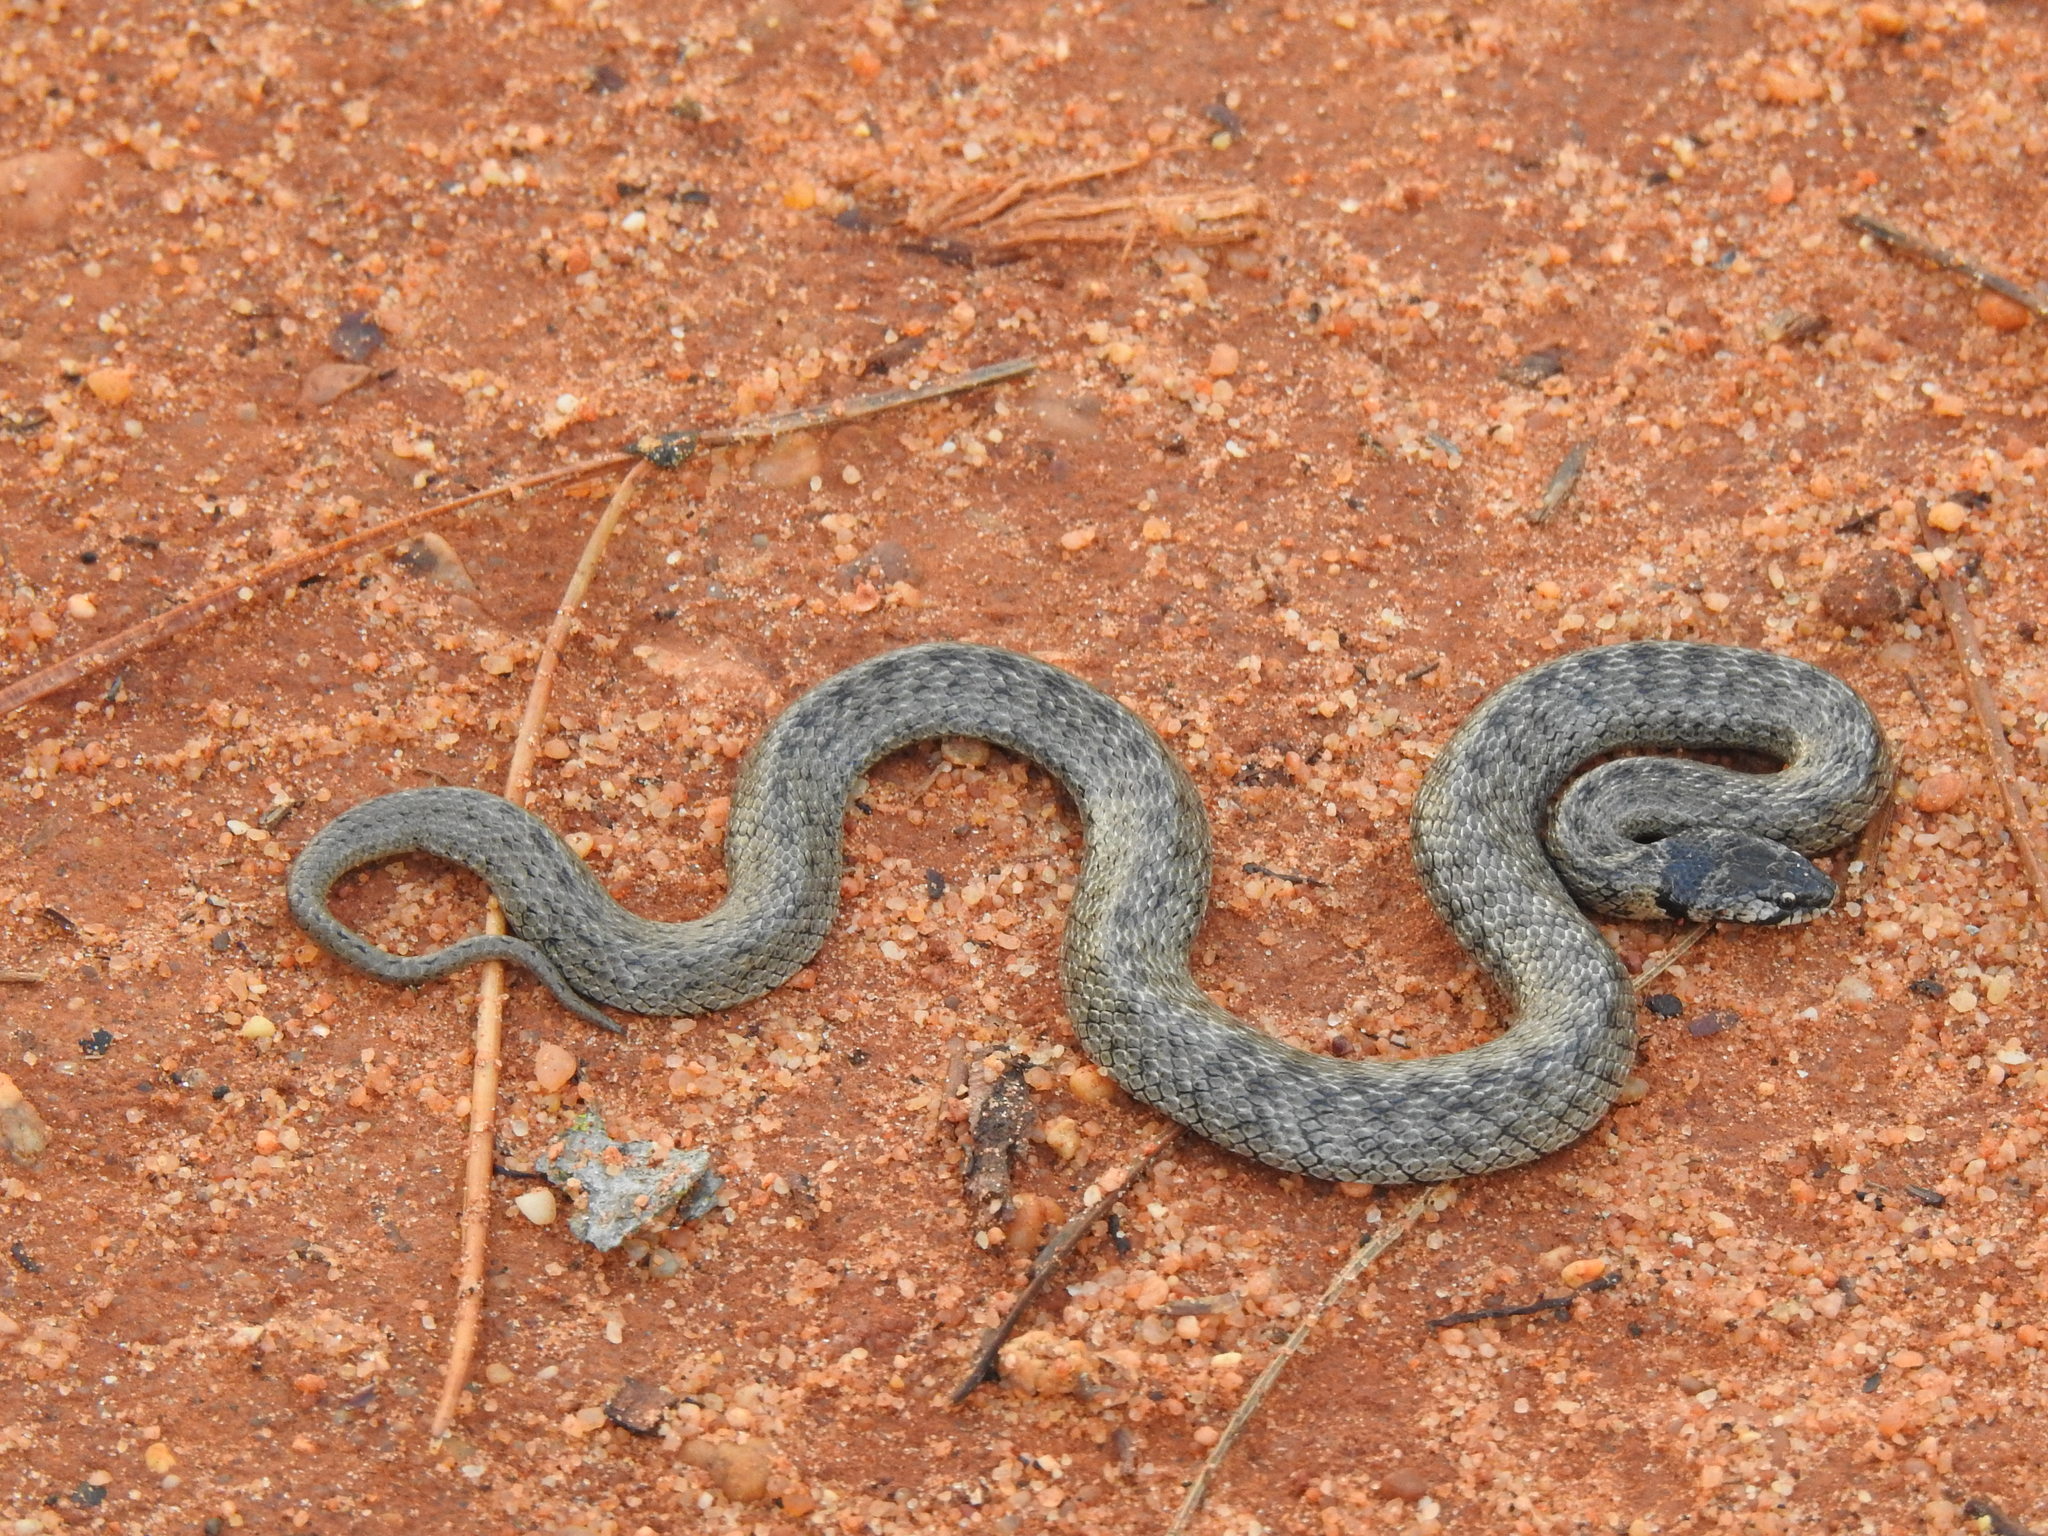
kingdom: Animalia
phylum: Chordata
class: Squamata
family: Colubridae
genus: Macroprotodon
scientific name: Macroprotodon brevis
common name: Iberian false smooth snake
